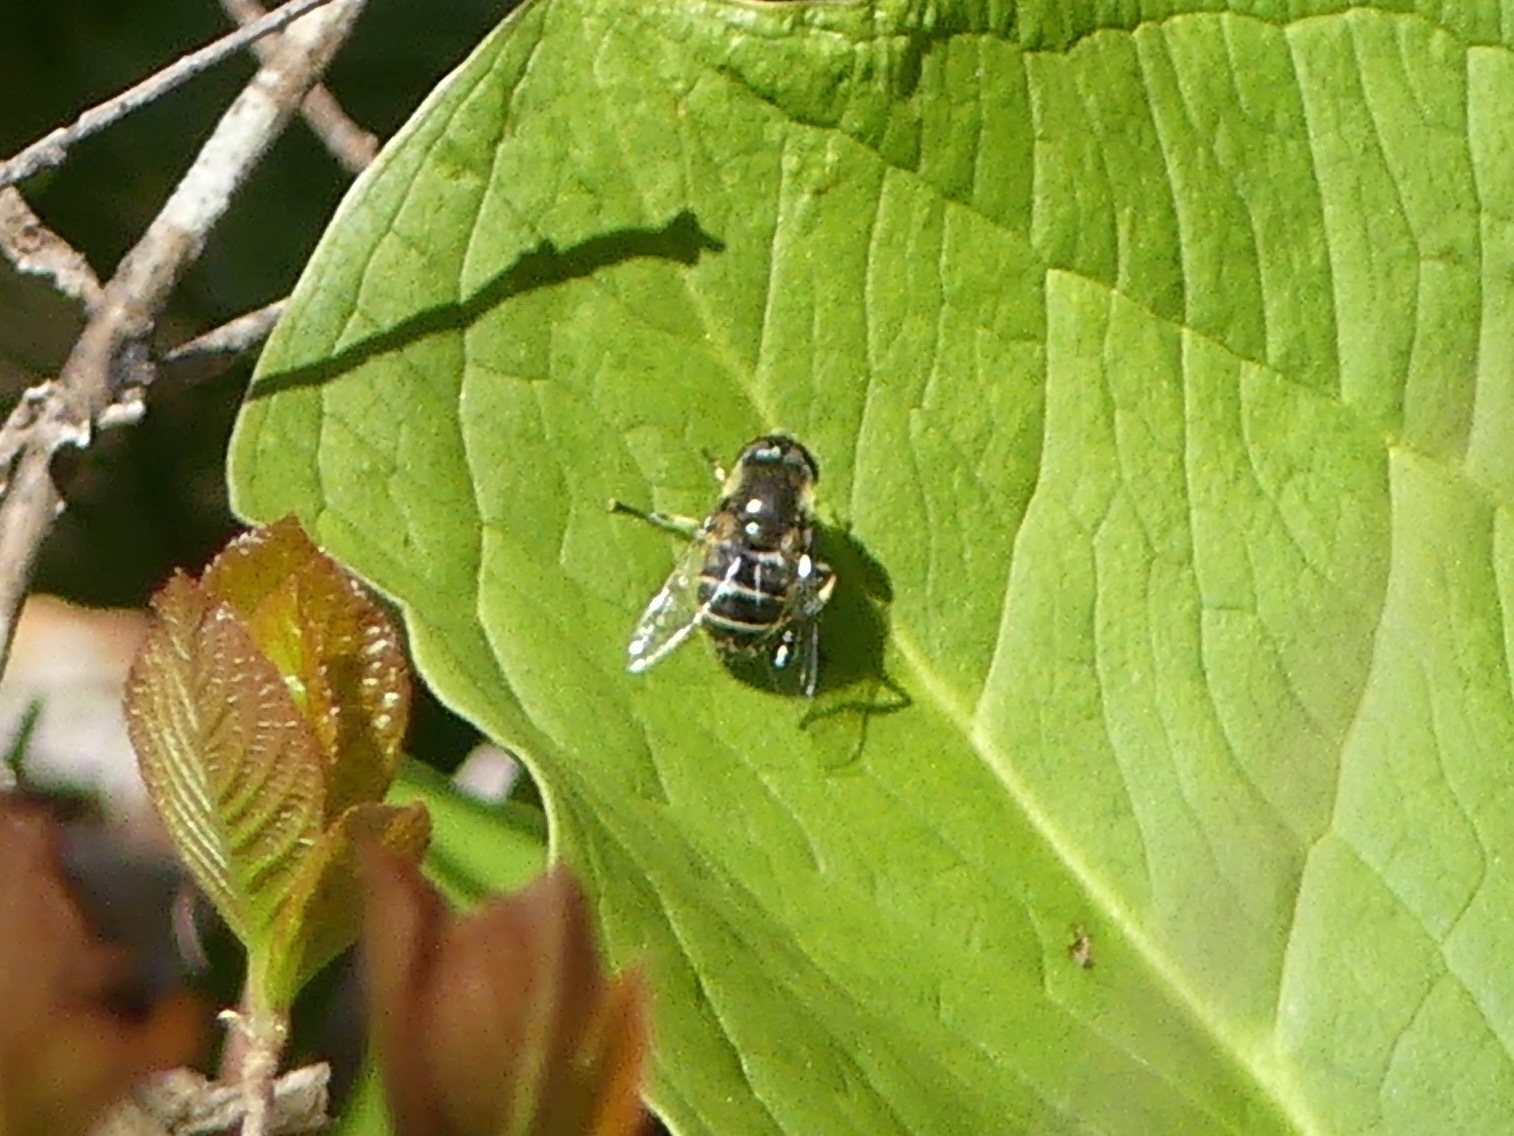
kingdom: Animalia
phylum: Arthropoda
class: Insecta
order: Diptera
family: Syrphidae
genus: Eristalis
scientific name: Eristalis dimidiata
